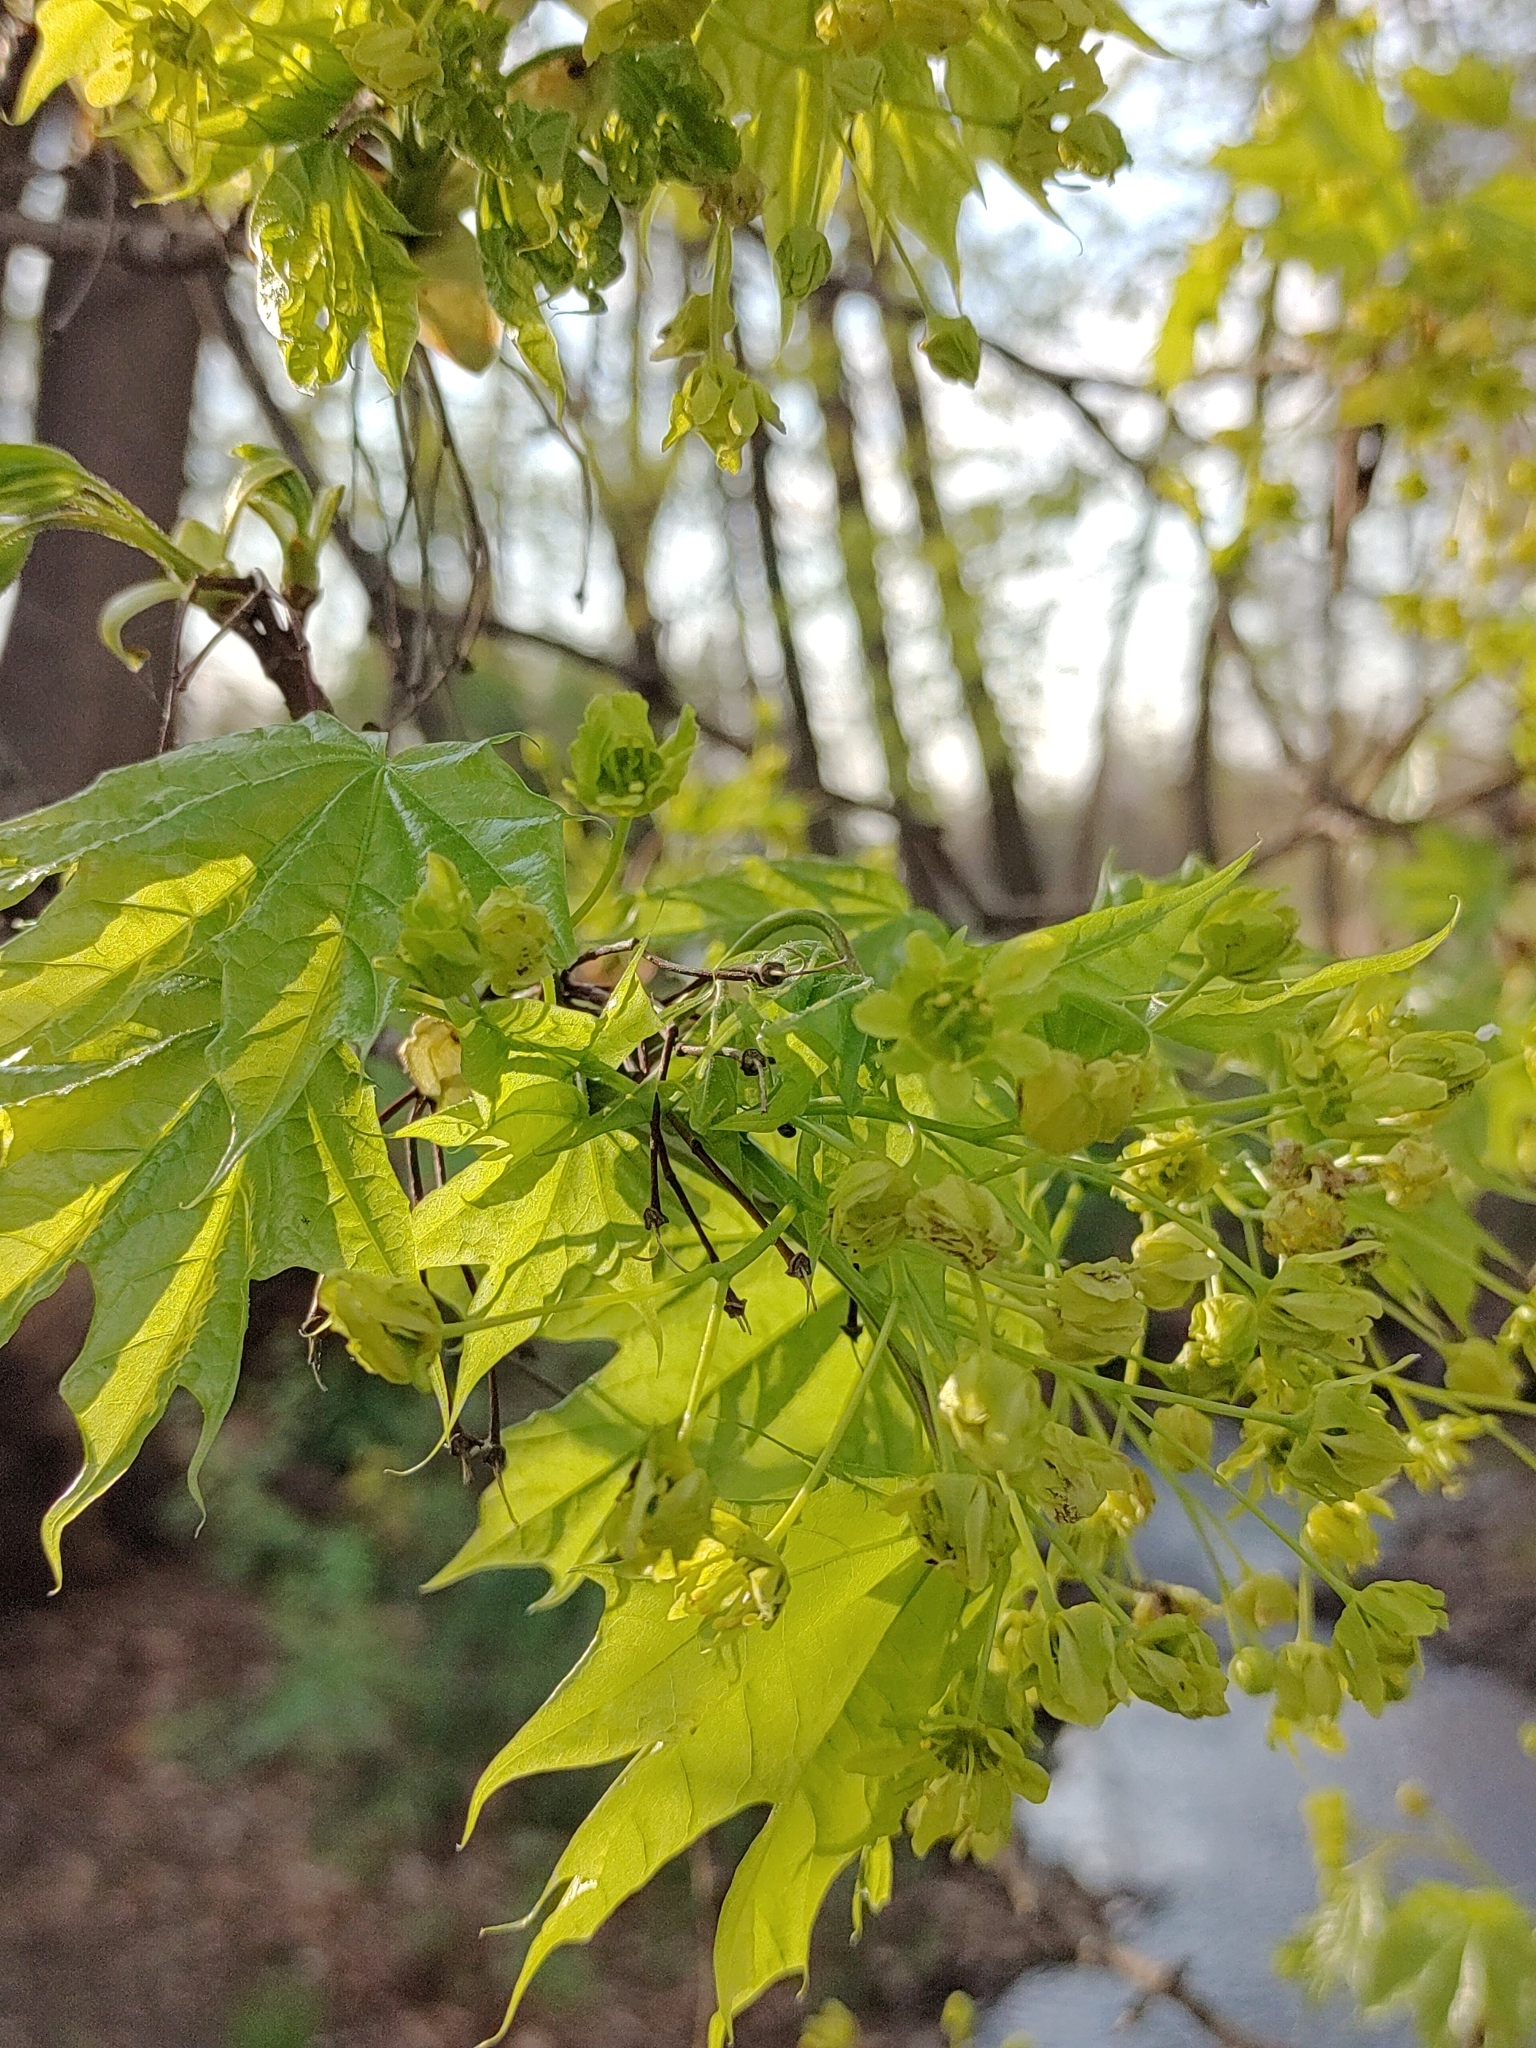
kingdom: Plantae
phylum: Tracheophyta
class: Magnoliopsida
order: Sapindales
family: Sapindaceae
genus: Acer
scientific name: Acer platanoides
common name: Norway maple
